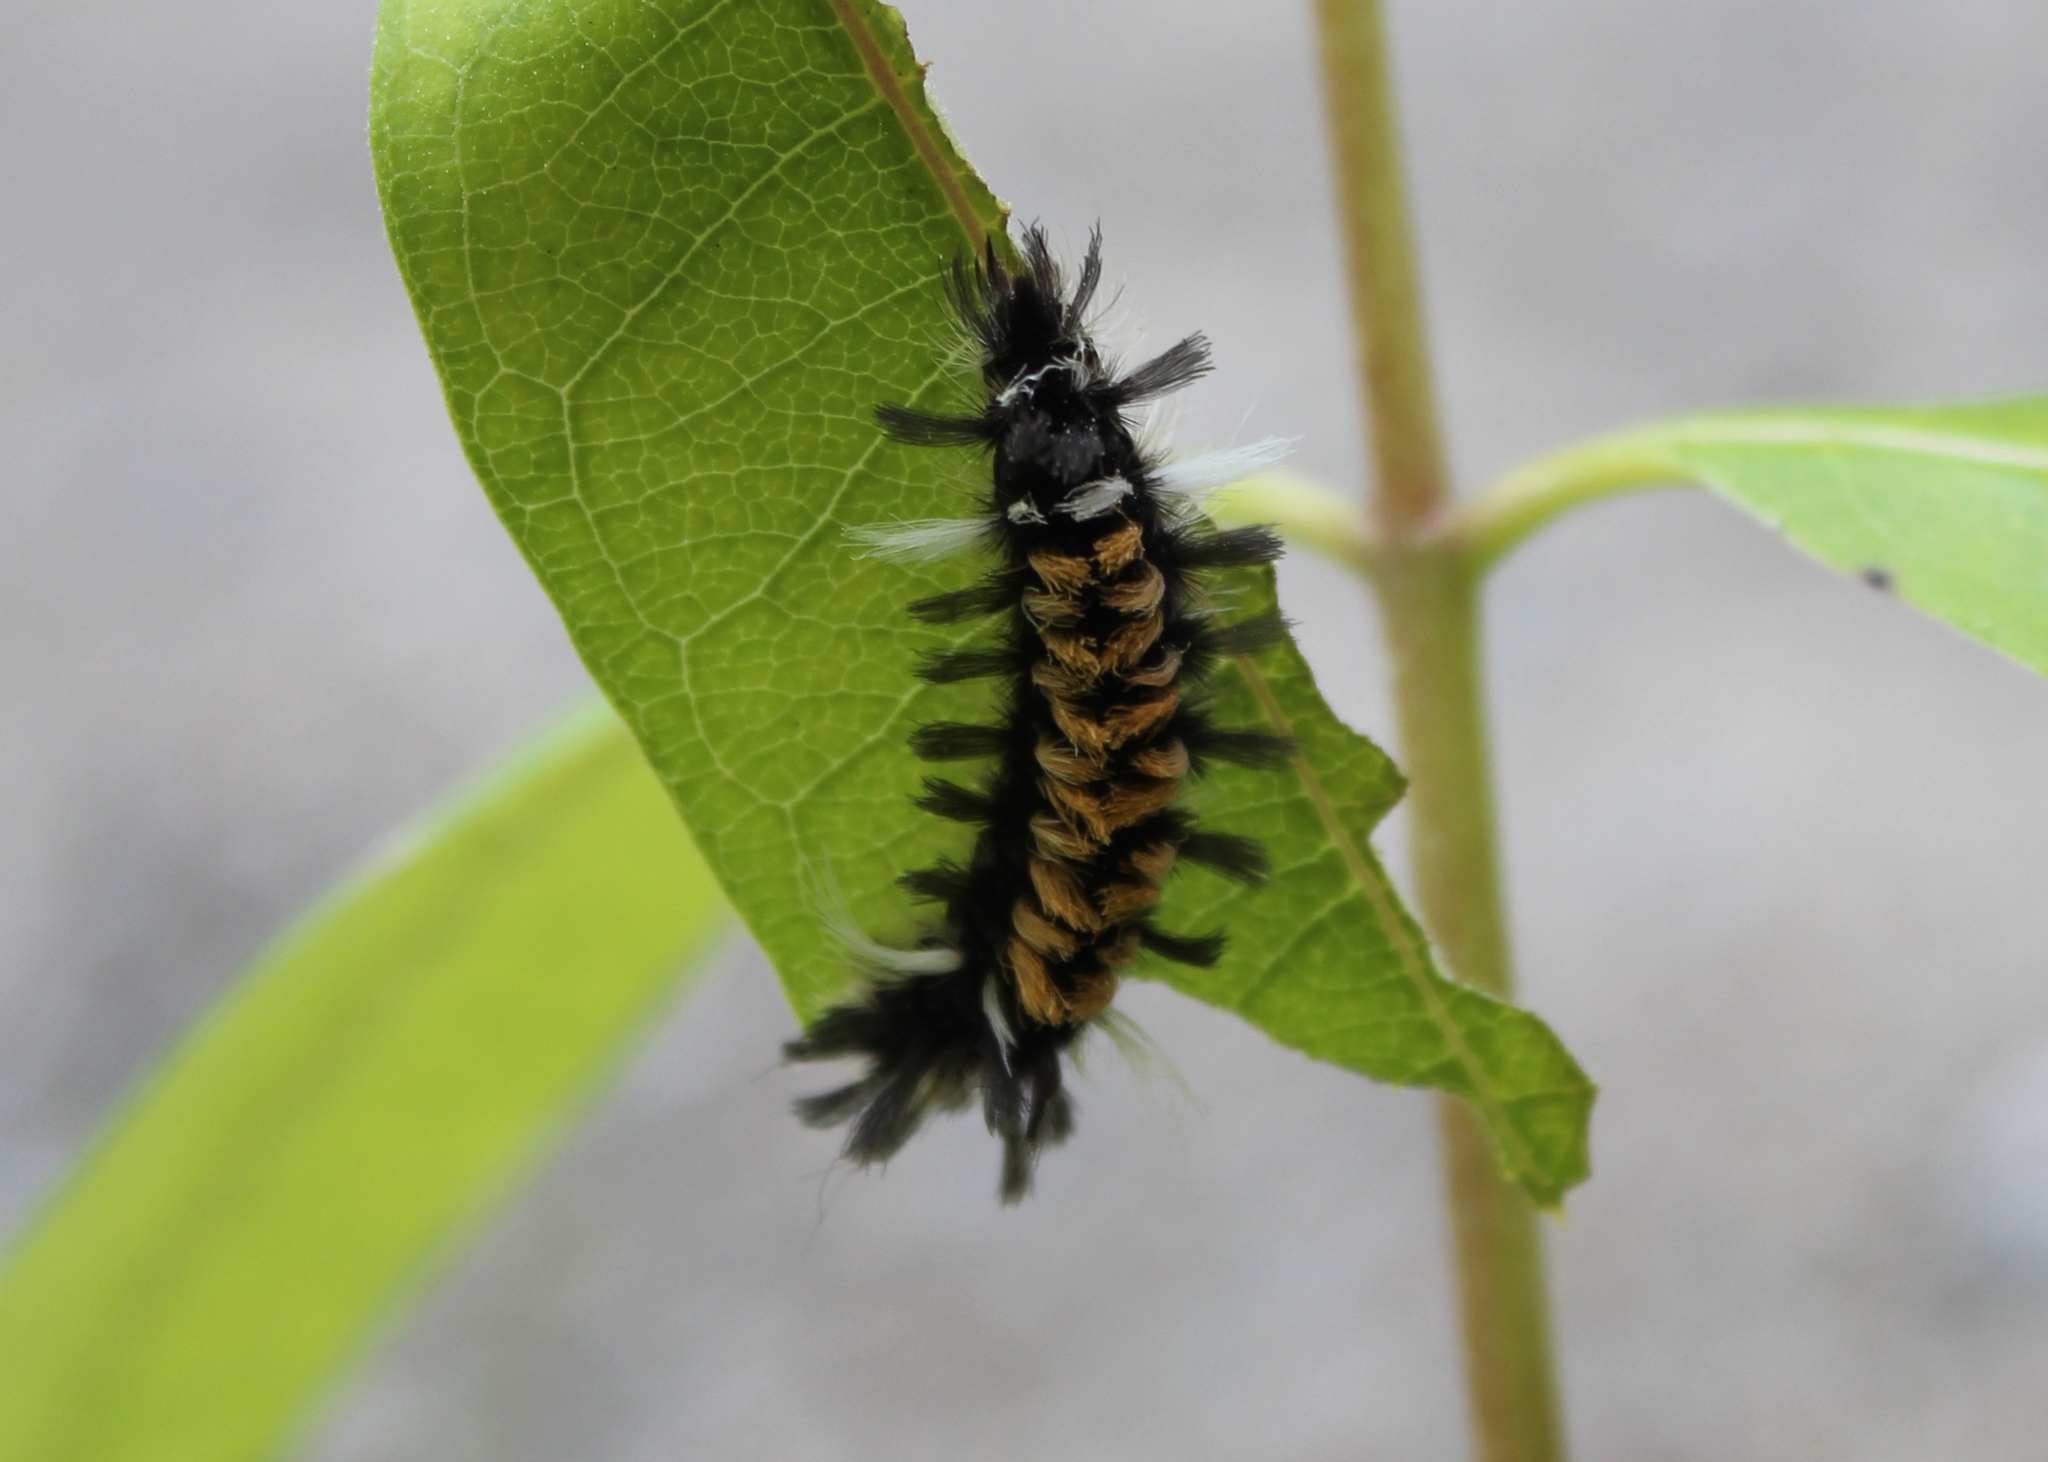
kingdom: Animalia
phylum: Arthropoda
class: Insecta
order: Lepidoptera
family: Erebidae
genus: Euchaetes
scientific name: Euchaetes egle
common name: Milkweed tussock moth
